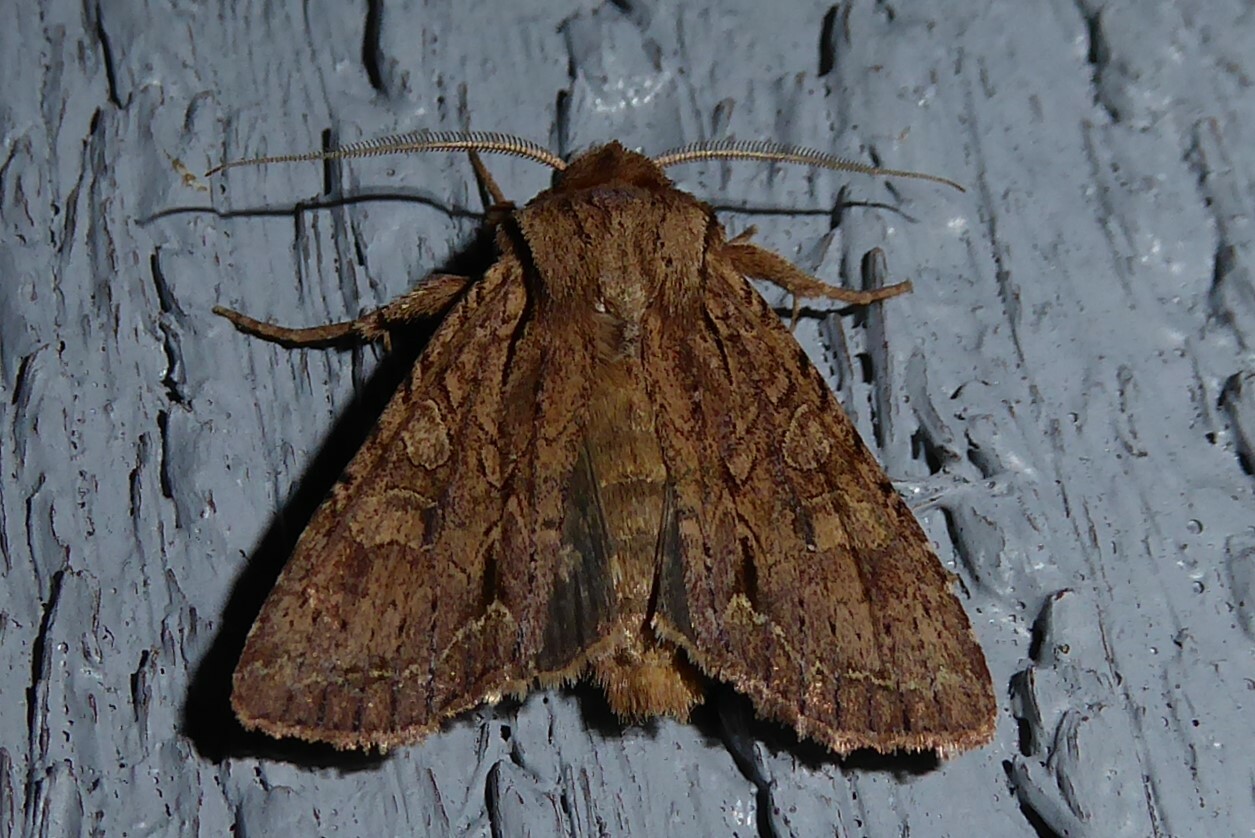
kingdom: Animalia
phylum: Arthropoda
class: Insecta
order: Lepidoptera
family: Noctuidae
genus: Ichneutica
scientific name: Ichneutica
